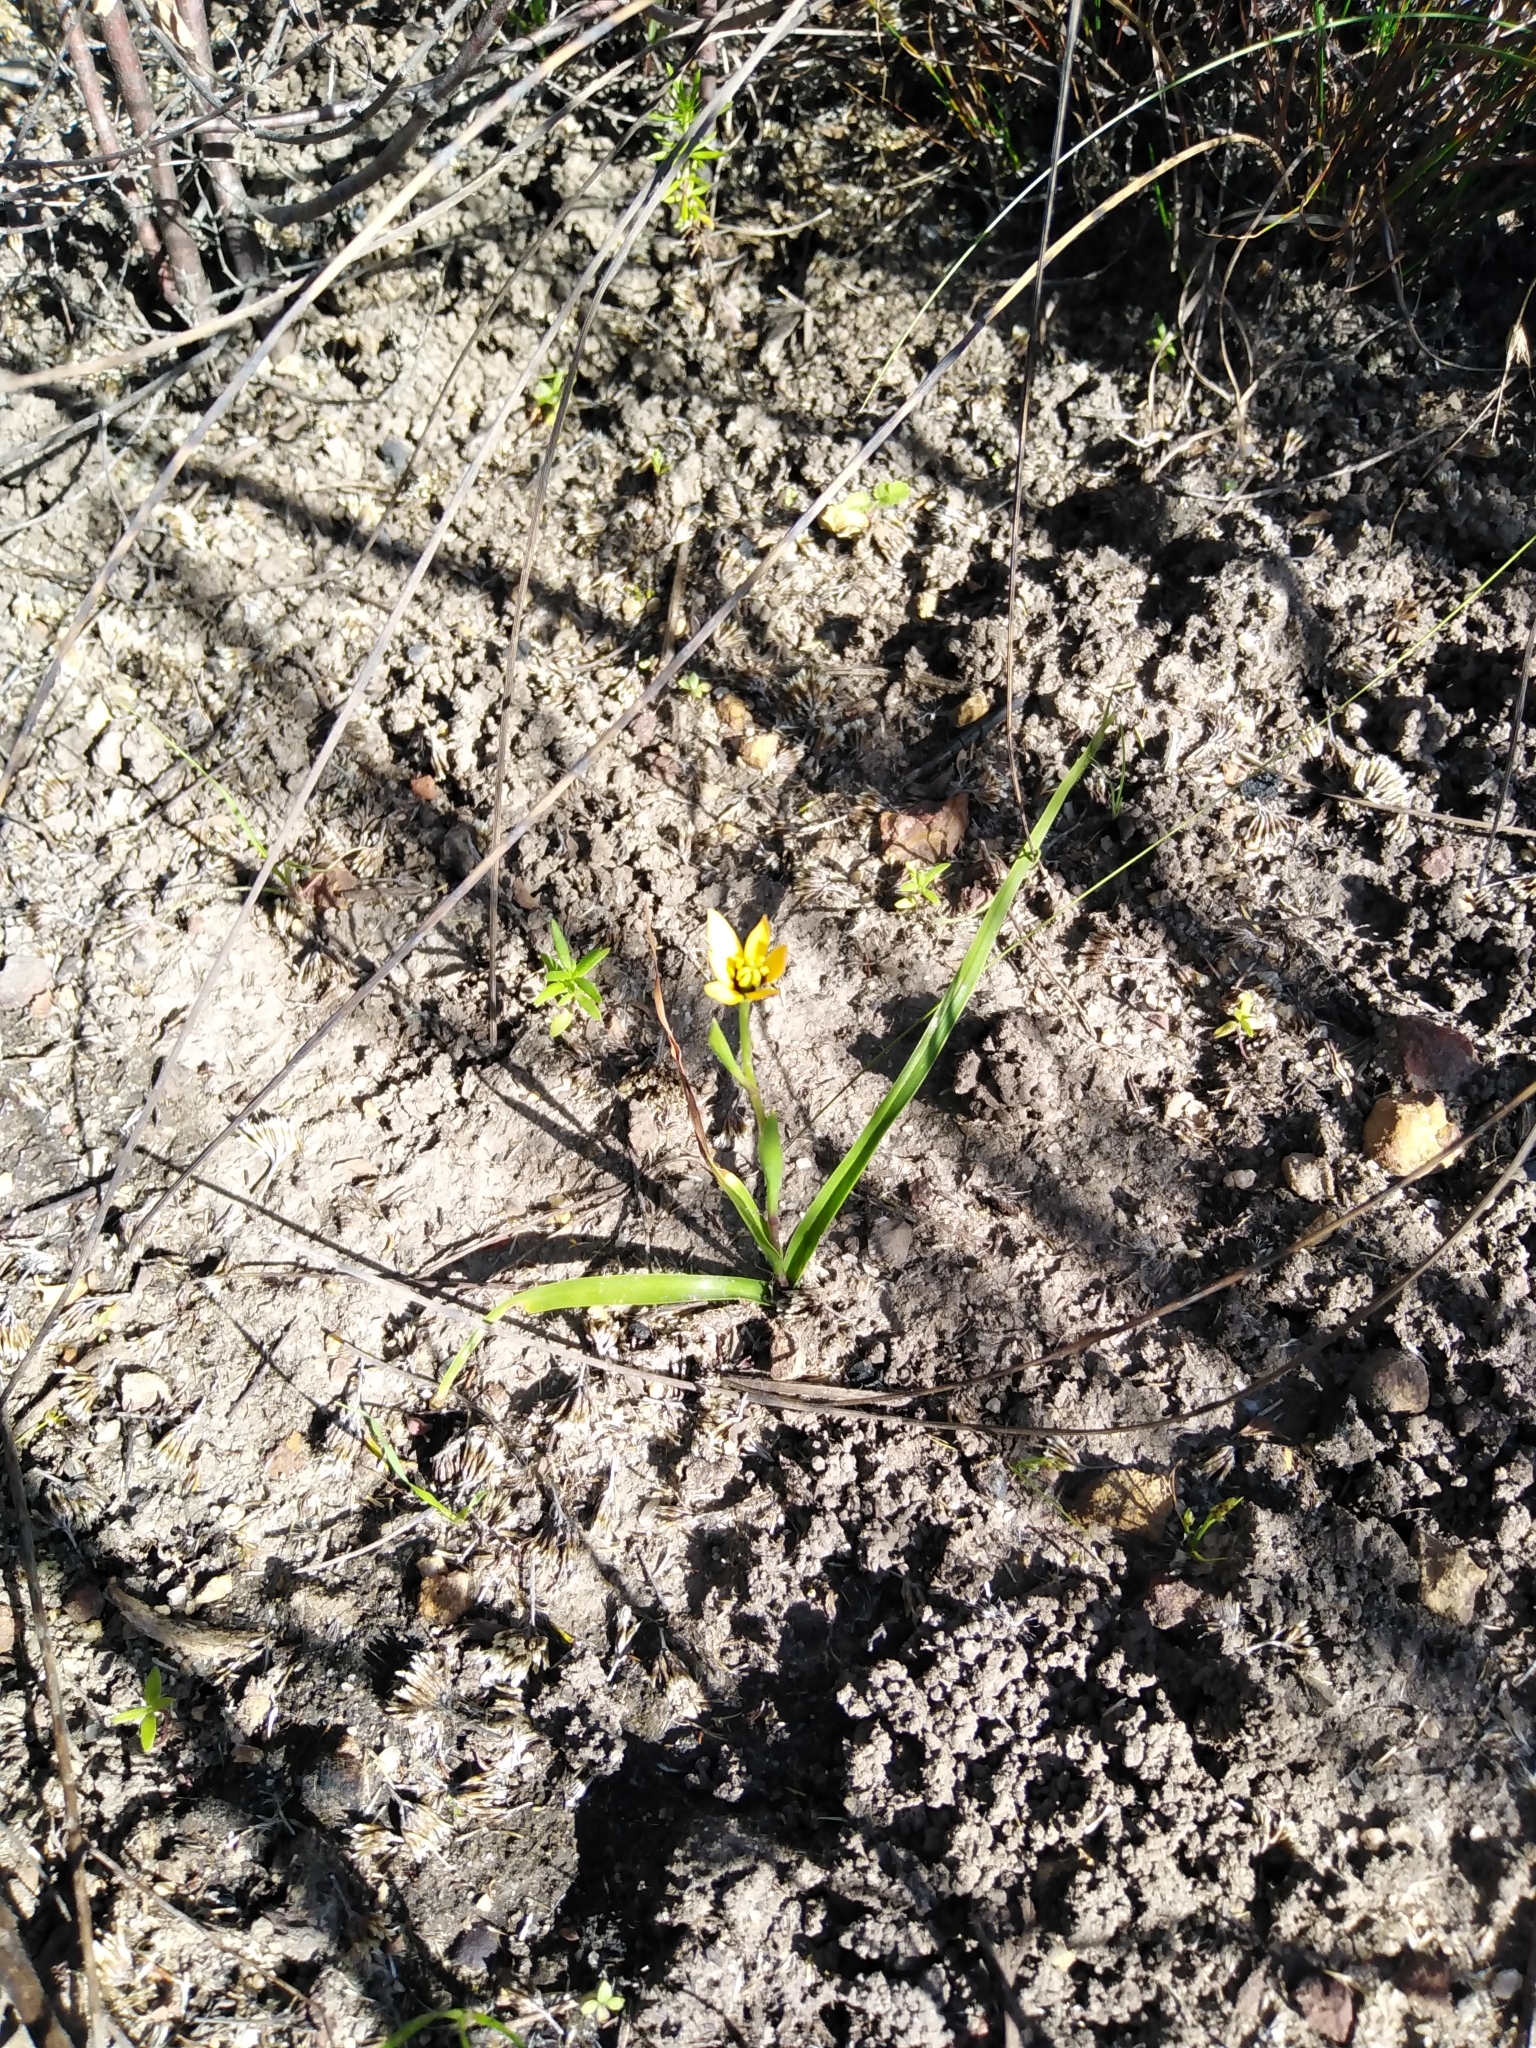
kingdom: Plantae
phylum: Tracheophyta
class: Liliopsida
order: Liliales
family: Colchicaceae
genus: Baeometra
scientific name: Baeometra uniflora
